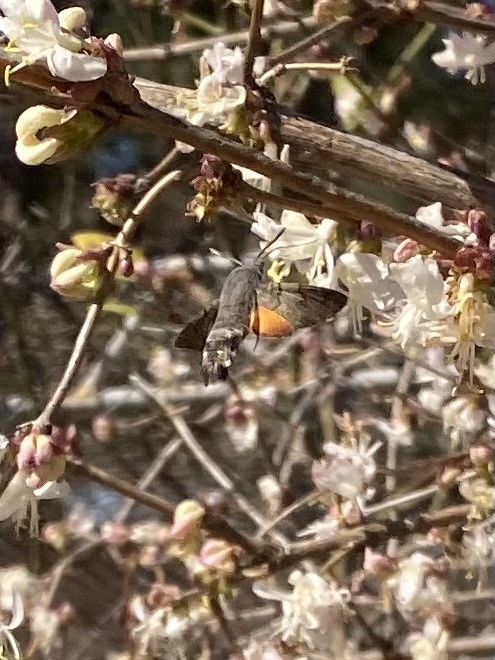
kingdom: Animalia
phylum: Arthropoda
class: Insecta
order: Lepidoptera
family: Sphingidae
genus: Macroglossum
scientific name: Macroglossum stellatarum
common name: Humming-bird hawk-moth
